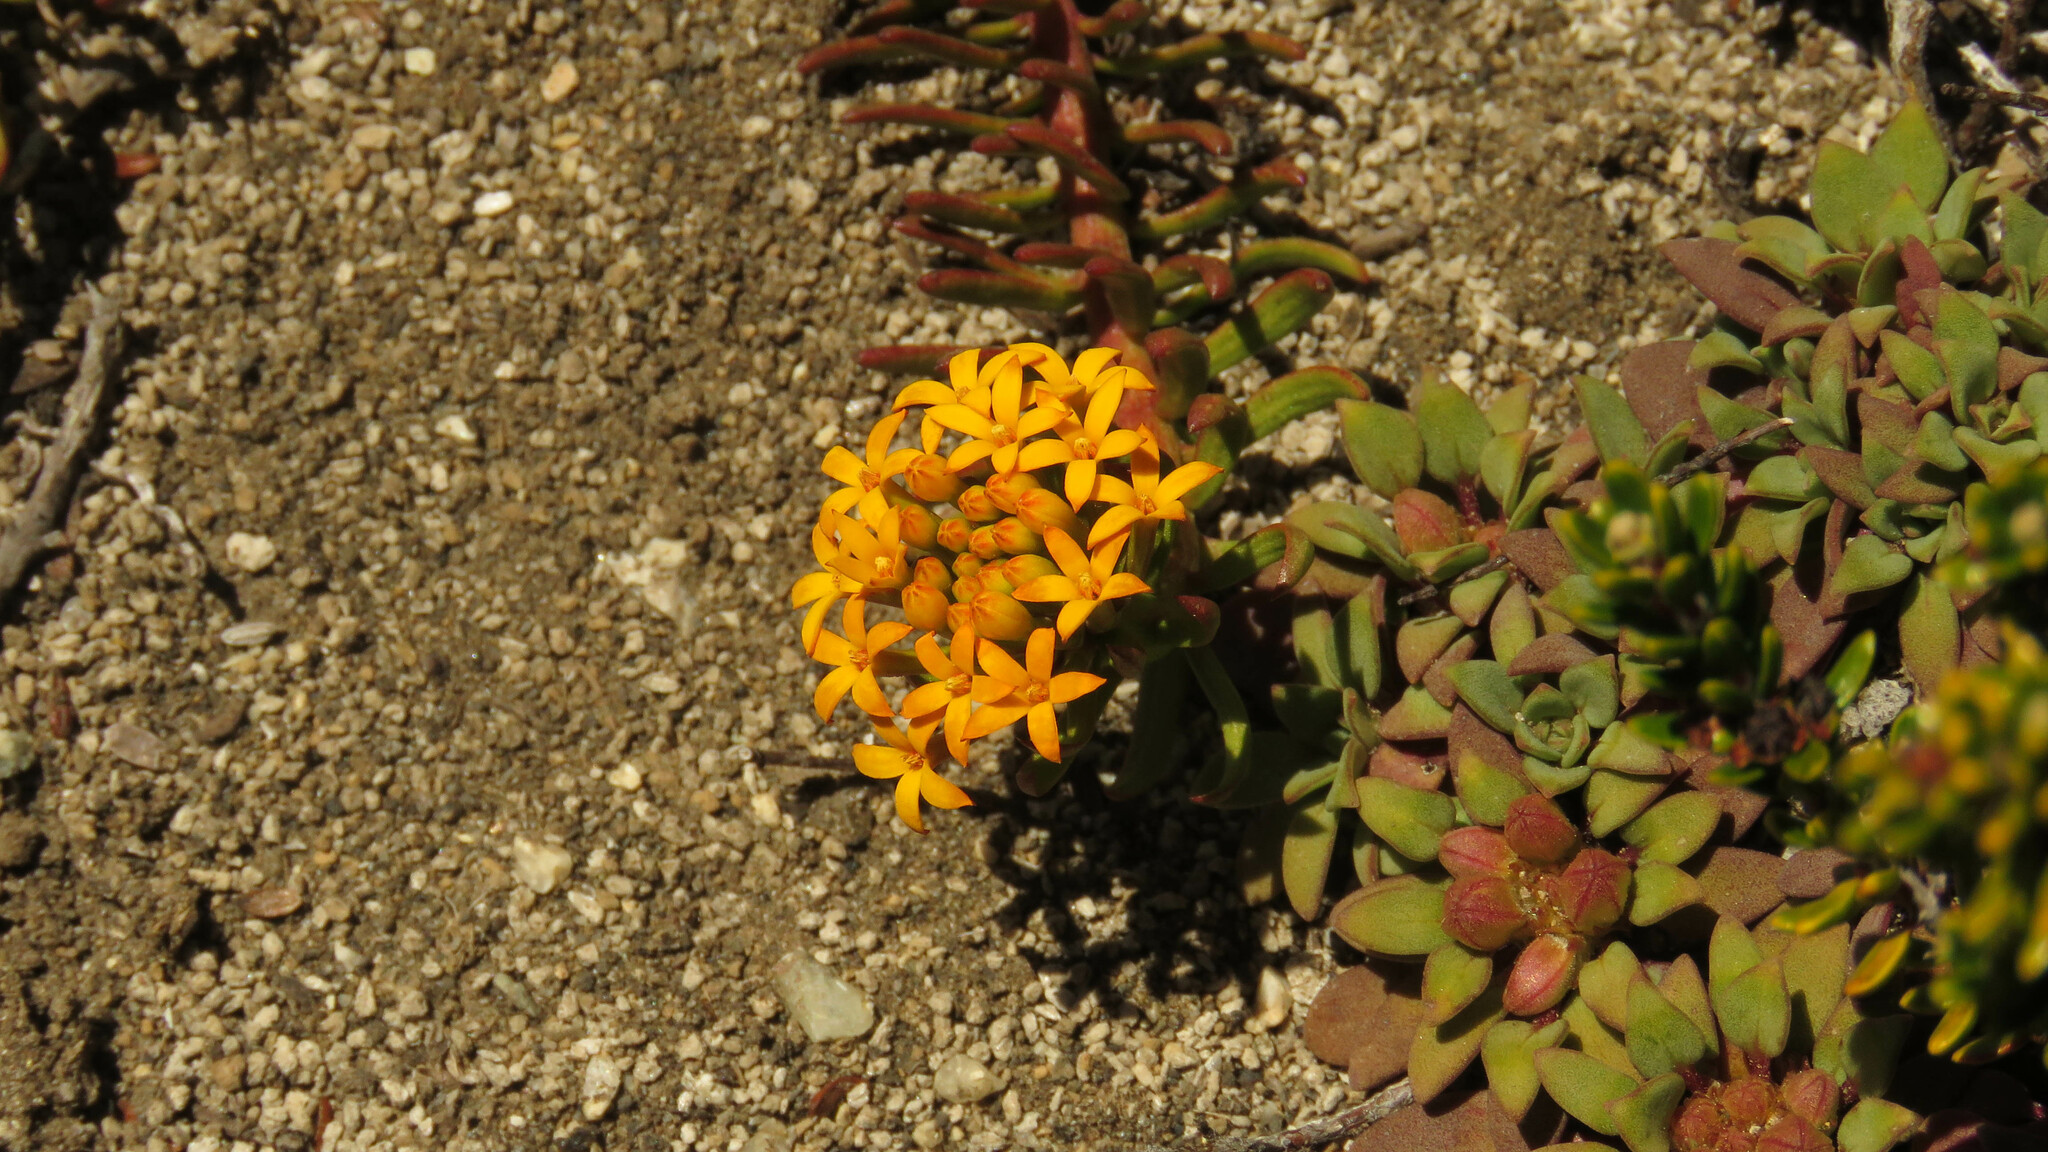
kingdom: Plantae
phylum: Tracheophyta
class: Magnoliopsida
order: Santalales
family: Schoepfiaceae
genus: Quinchamalium
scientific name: Quinchamalium chilense
